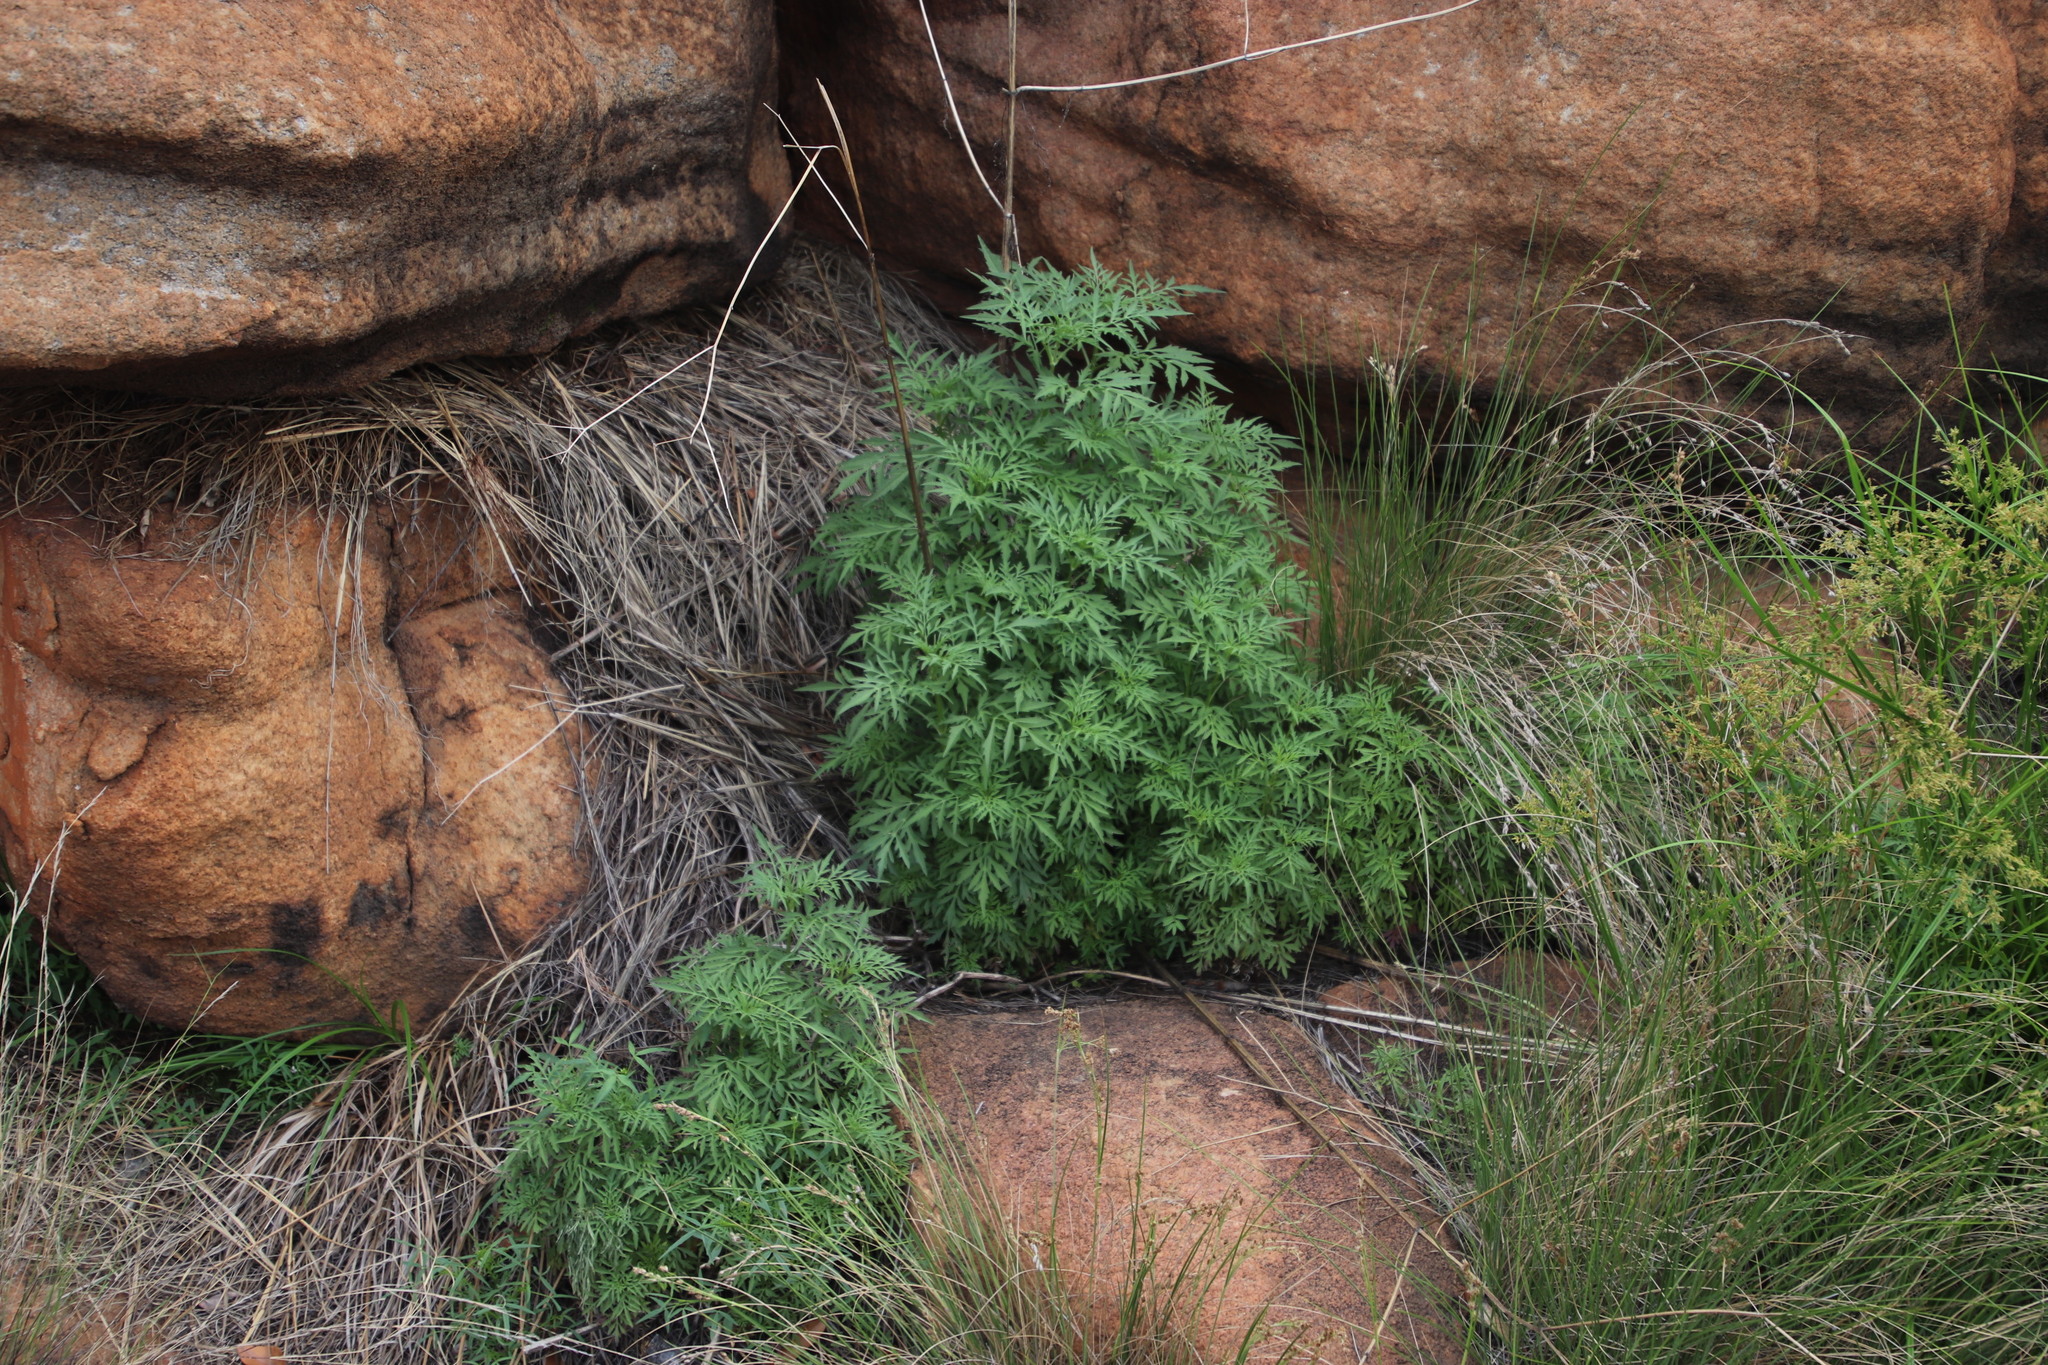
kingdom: Plantae
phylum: Tracheophyta
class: Magnoliopsida
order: Asterales
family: Asteraceae
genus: Bidens
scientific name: Bidens bipinnata
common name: Spanish-needles
